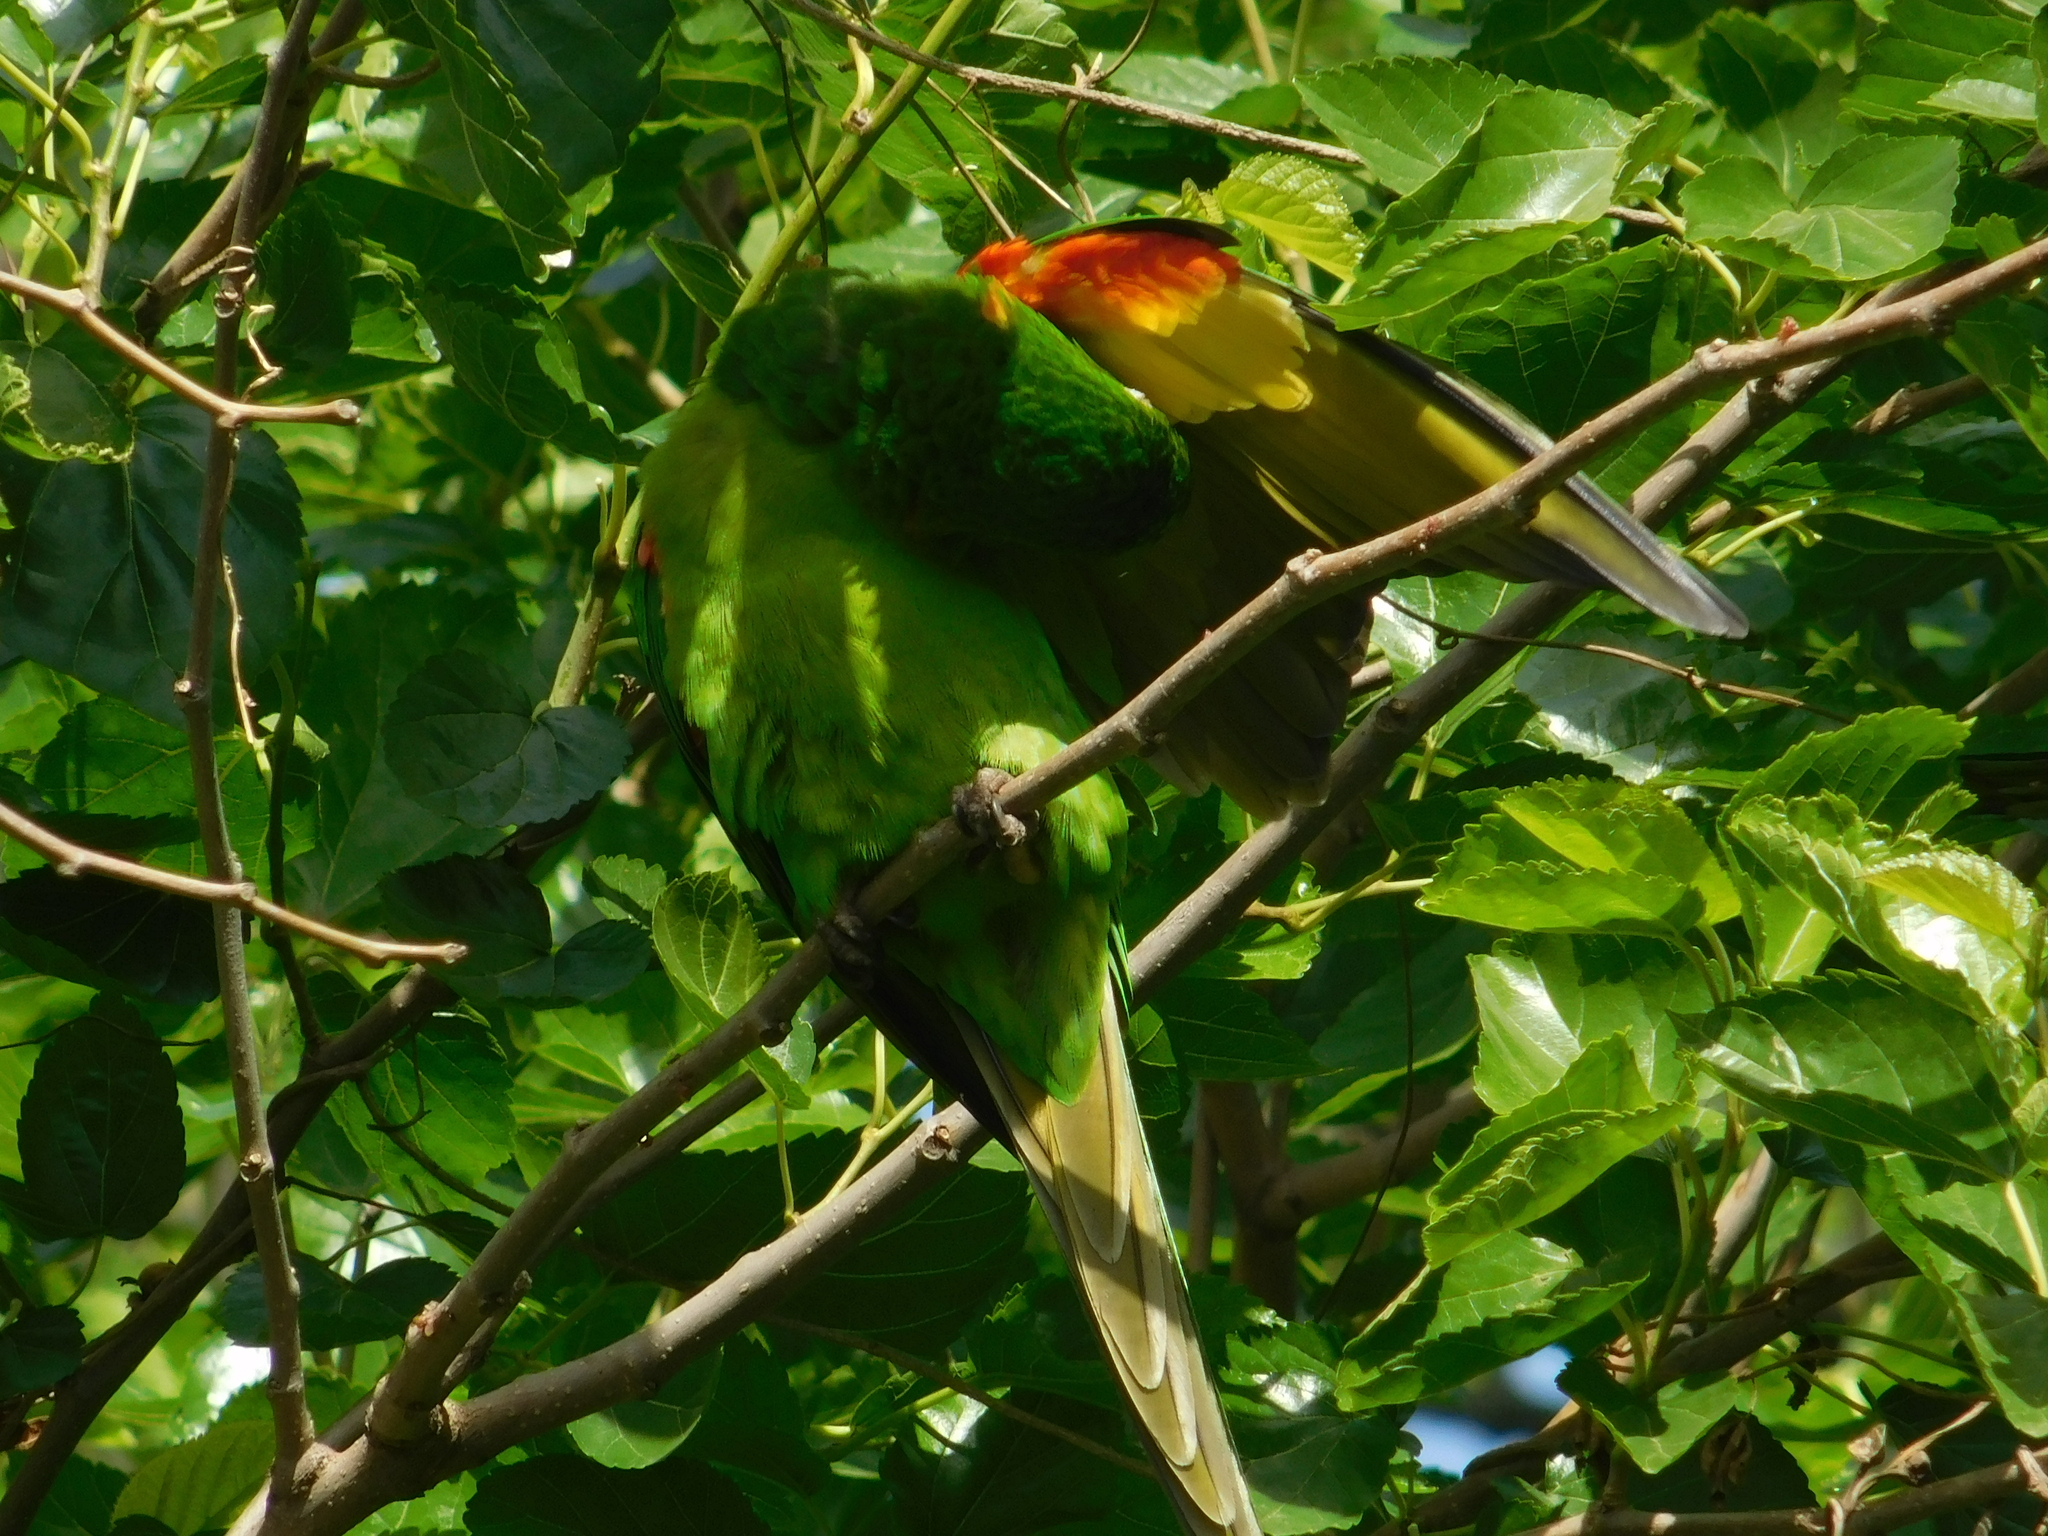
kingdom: Animalia
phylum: Chordata
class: Aves
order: Psittaciformes
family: Psittacidae
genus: Aratinga
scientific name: Aratinga leucophthalma
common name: White-eyed parakeet
